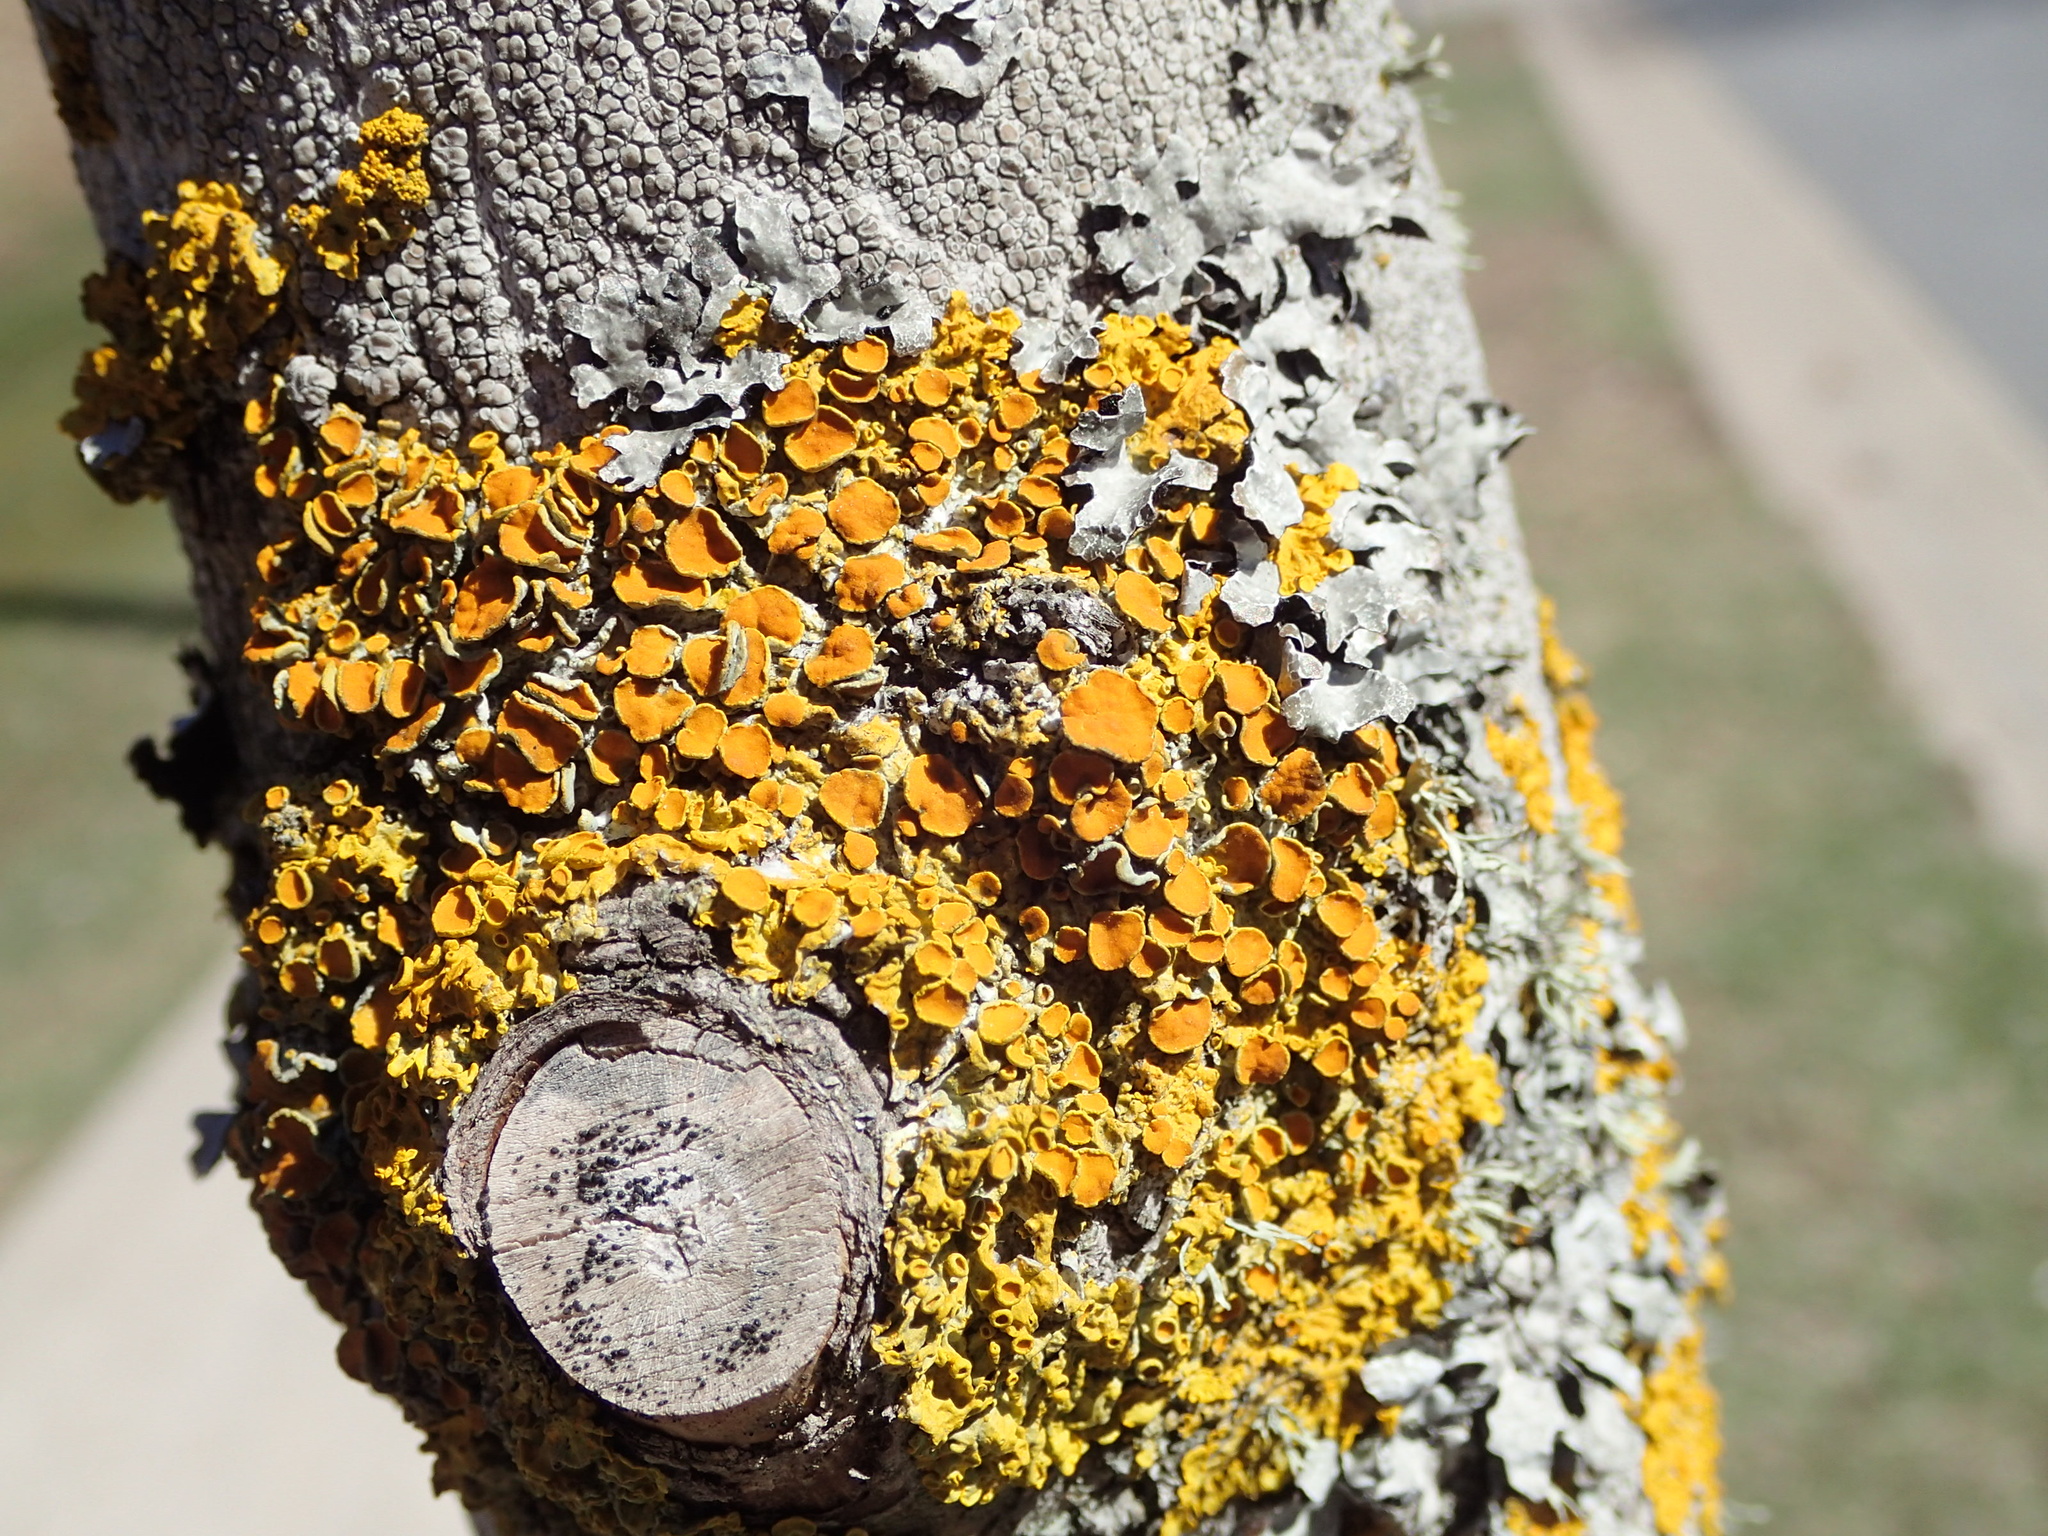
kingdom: Fungi
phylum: Ascomycota
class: Lecanoromycetes
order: Teloschistales
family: Teloschistaceae
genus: Xanthoria
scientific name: Xanthoria parietina
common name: Common orange lichen
